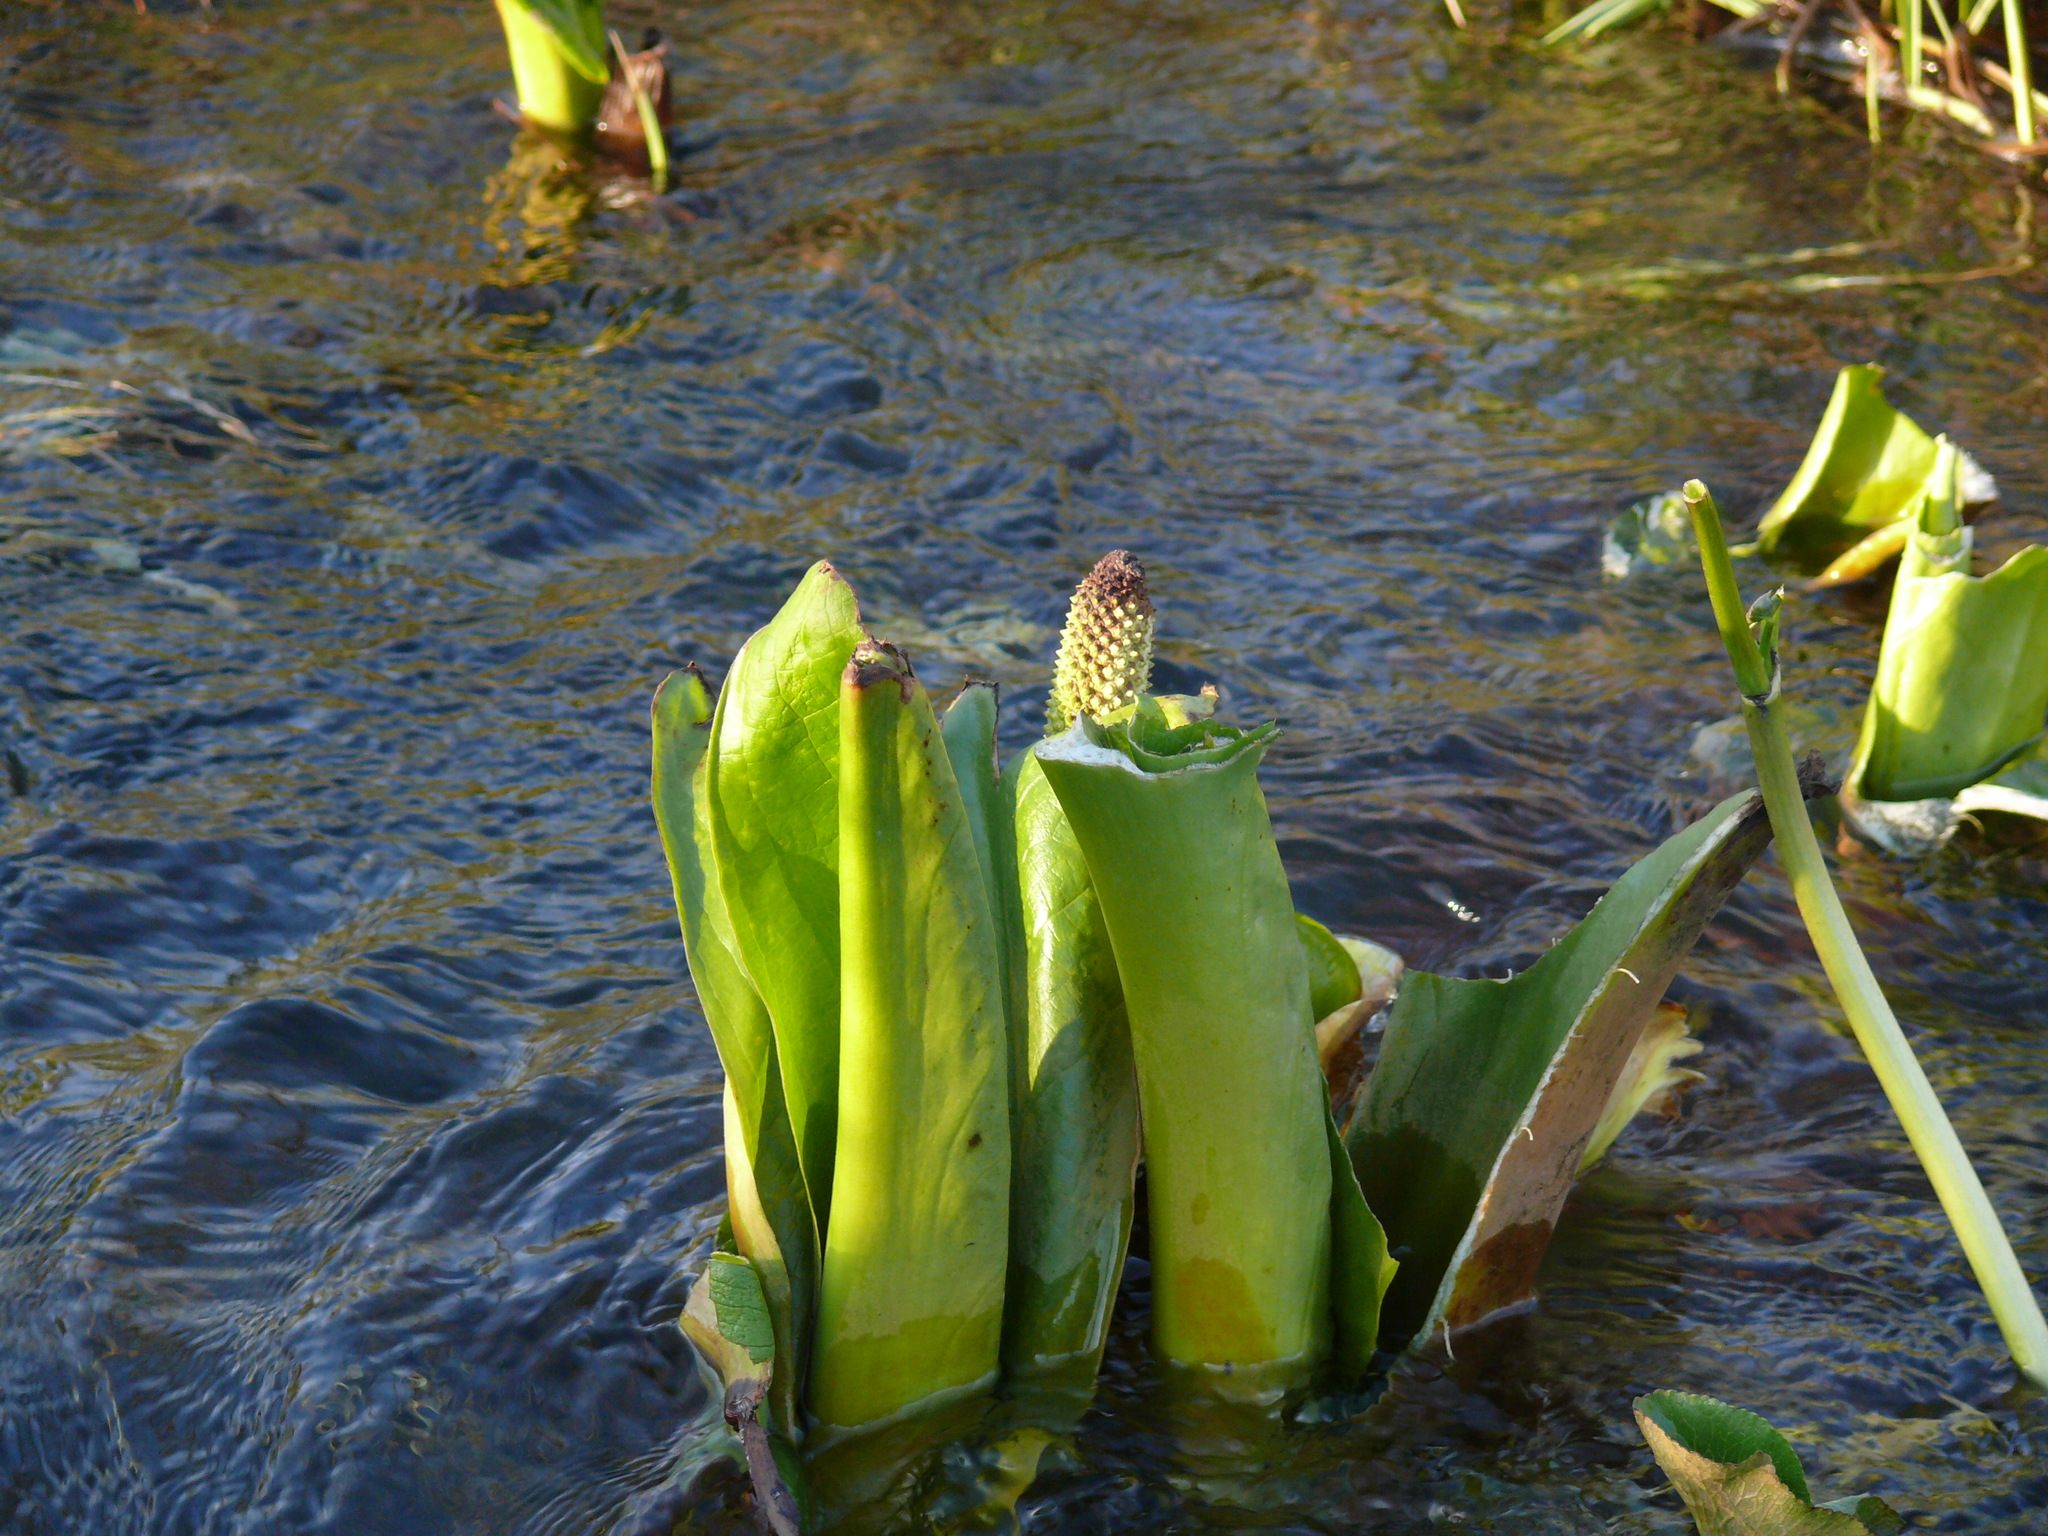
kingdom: Plantae
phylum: Tracheophyta
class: Liliopsida
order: Alismatales
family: Araceae
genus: Lysichiton
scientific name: Lysichiton americanus
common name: American skunk cabbage
